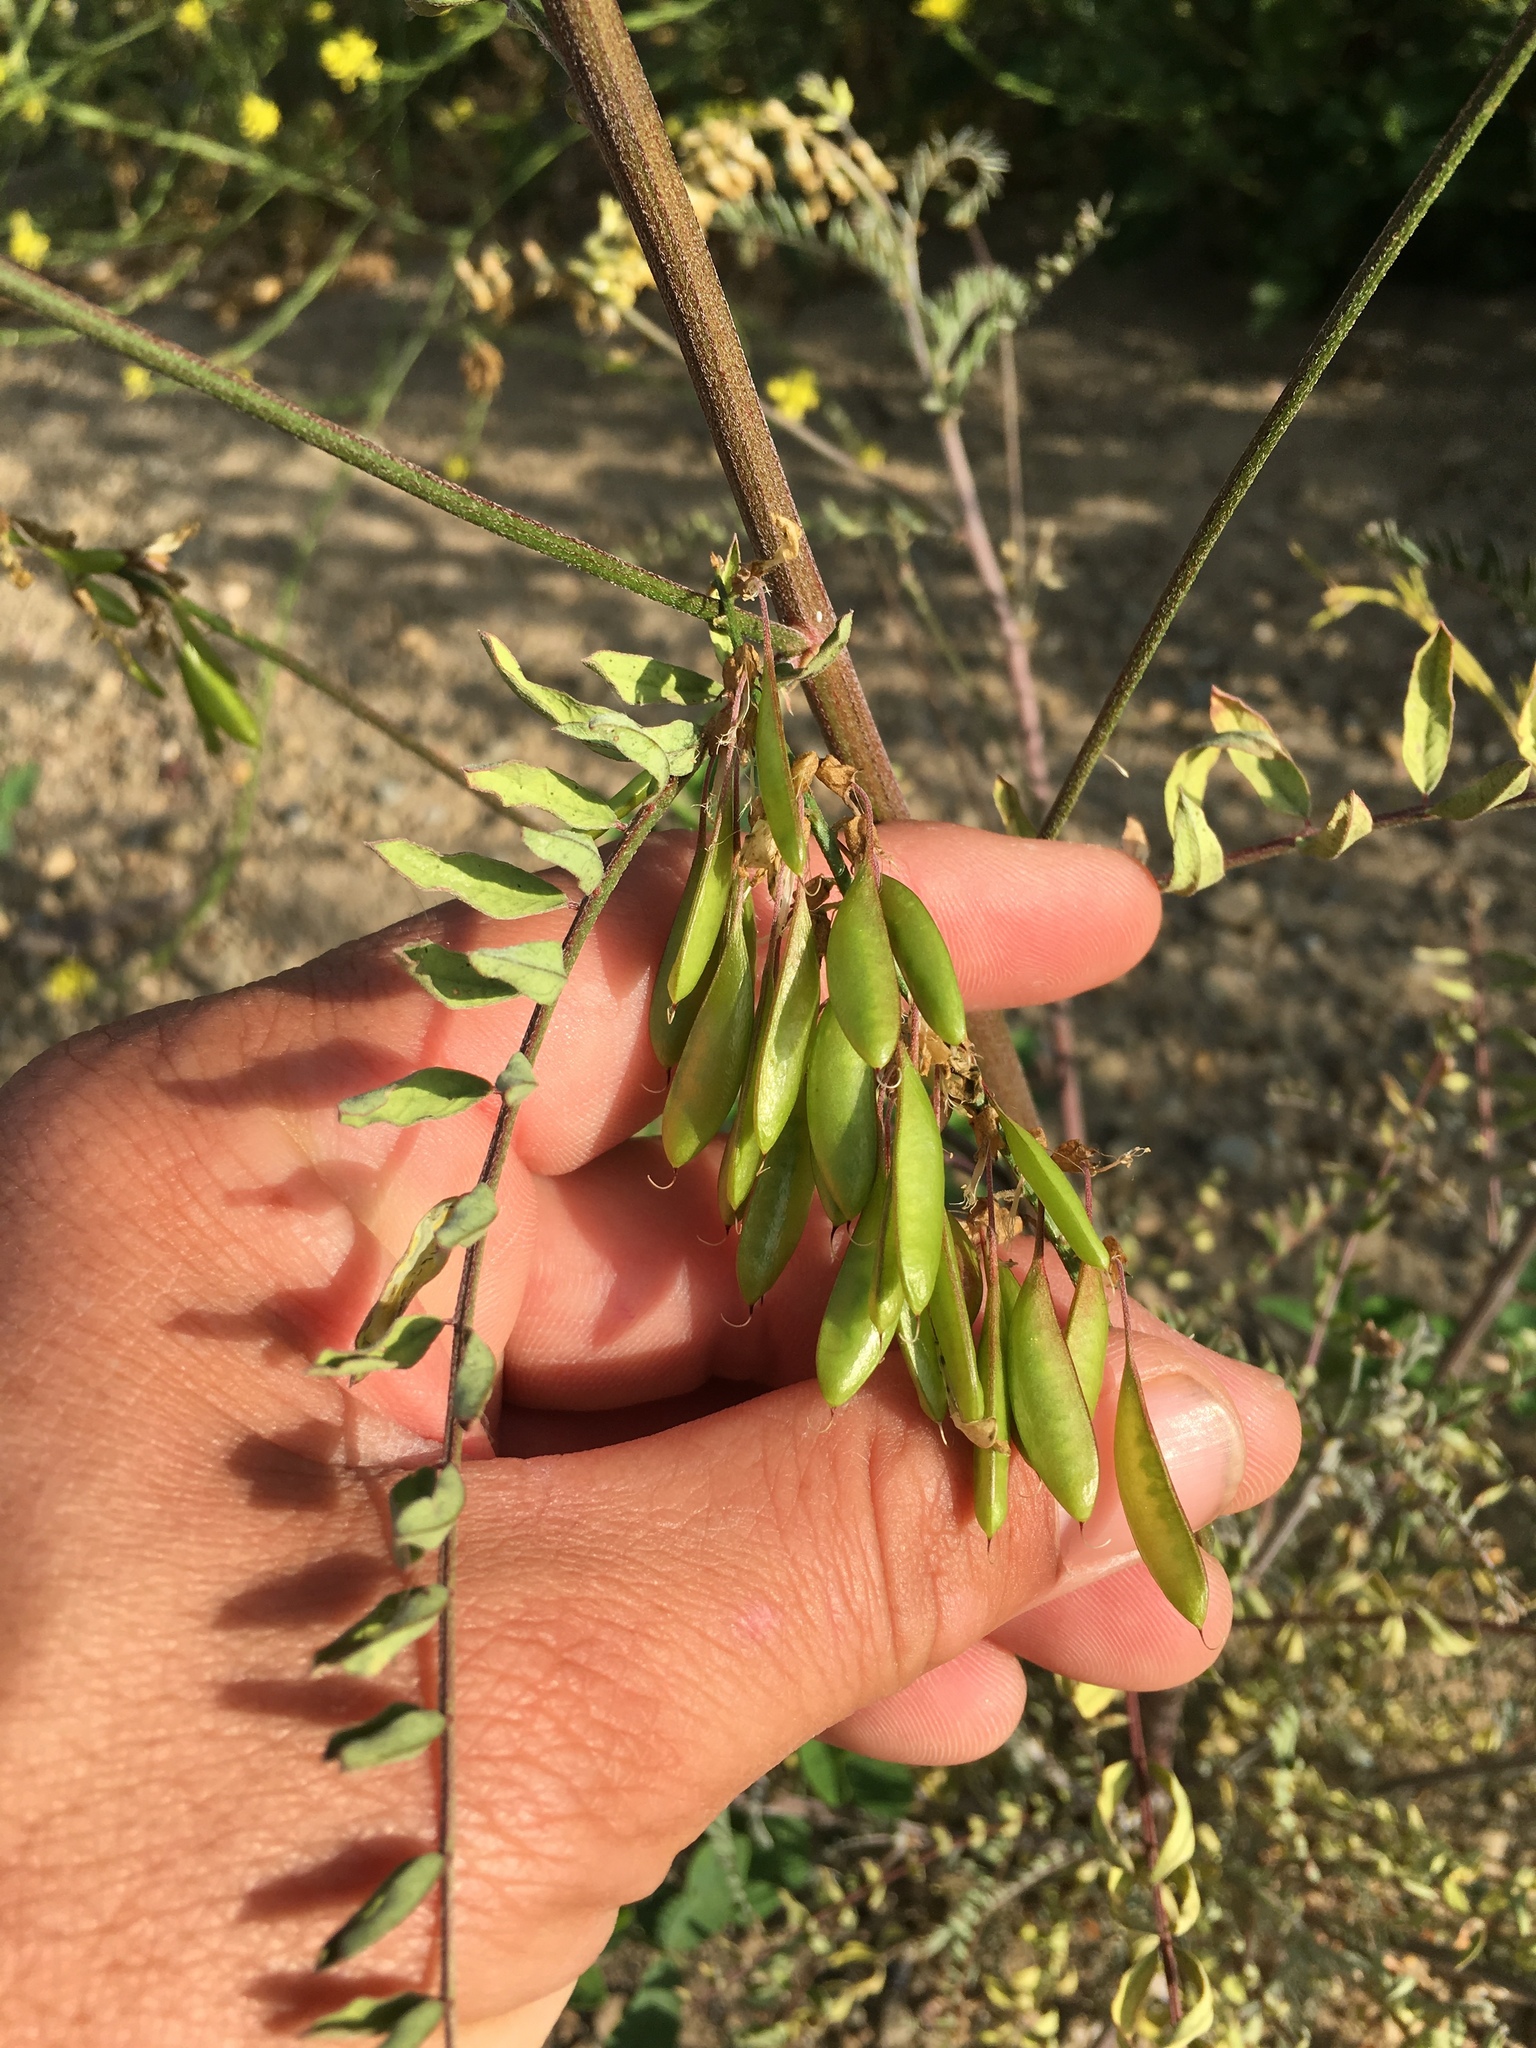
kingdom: Plantae
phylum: Tracheophyta
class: Magnoliopsida
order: Fabales
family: Fabaceae
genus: Astragalus
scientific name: Astragalus trichopodus
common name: Santa barbara milk-vetch
